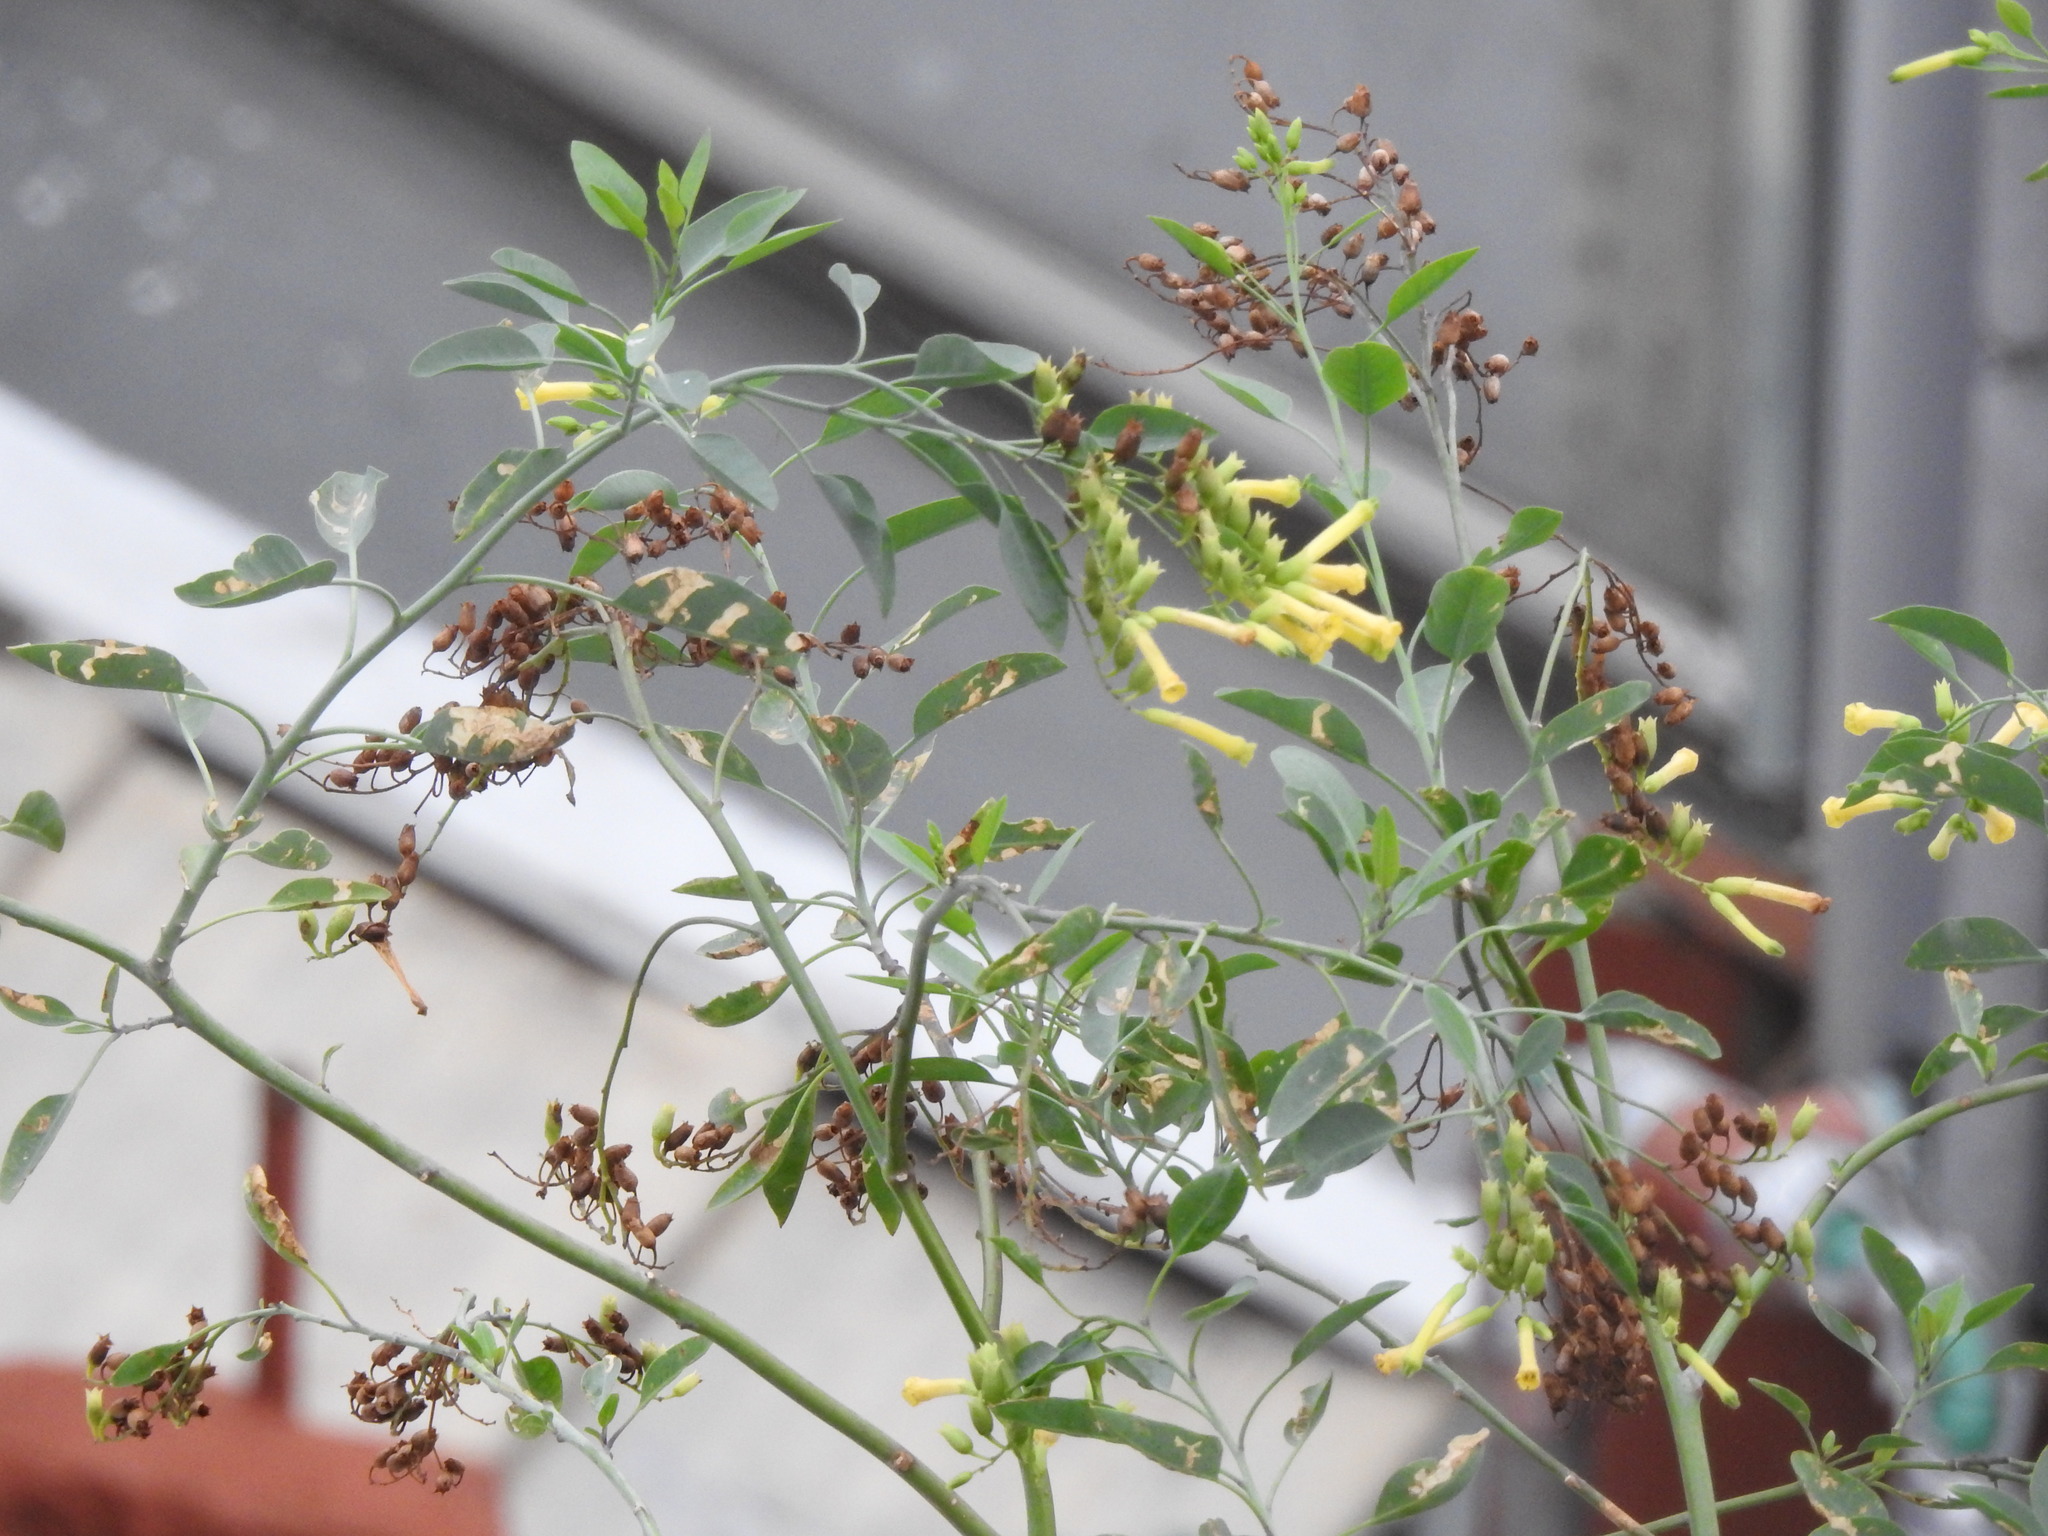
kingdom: Plantae
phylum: Tracheophyta
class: Magnoliopsida
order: Solanales
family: Solanaceae
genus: Nicotiana
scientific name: Nicotiana glauca
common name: Tree tobacco
